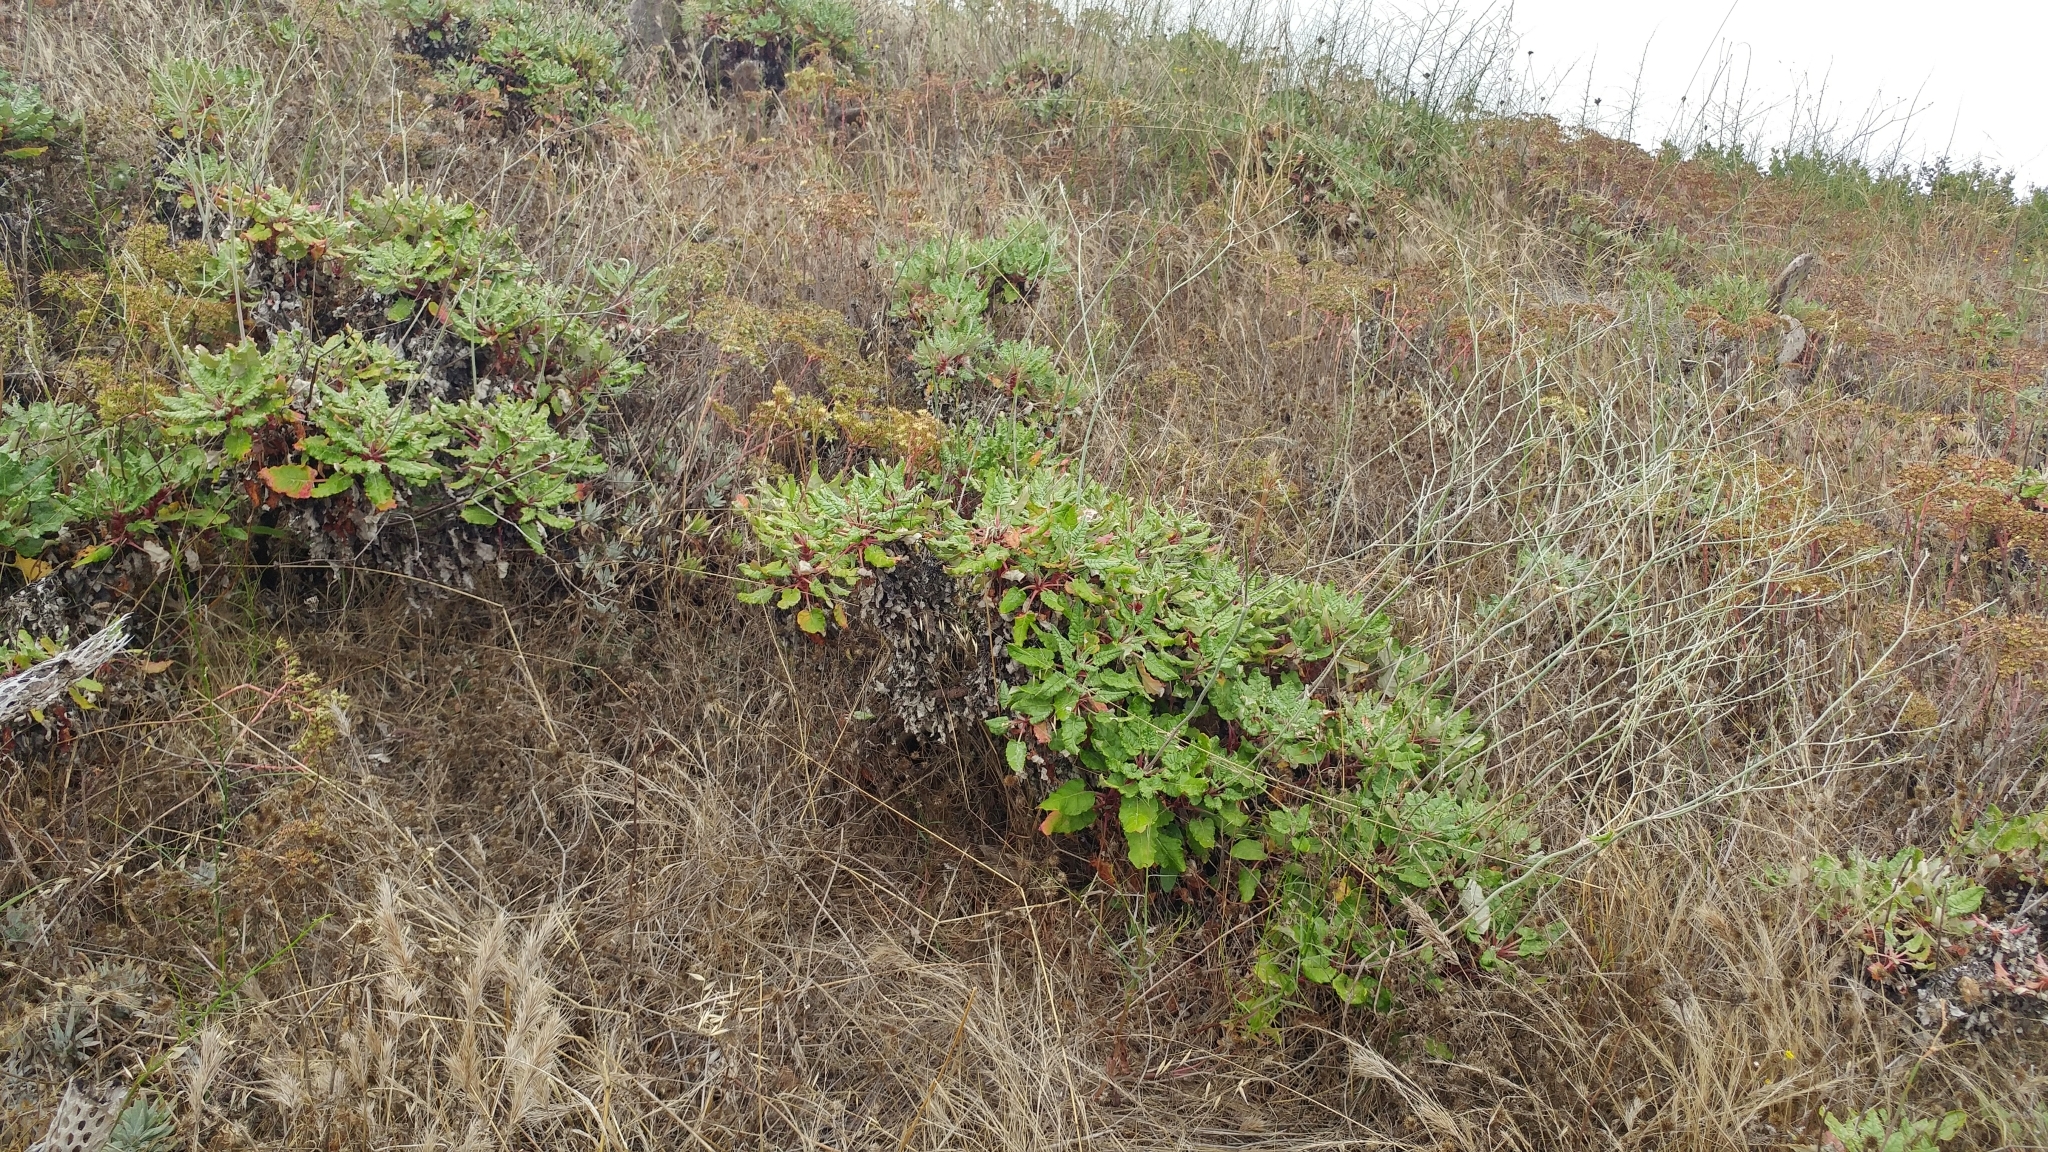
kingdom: Plantae
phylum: Tracheophyta
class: Magnoliopsida
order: Caryophyllales
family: Polygonaceae
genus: Eriogonum
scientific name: Eriogonum grande
